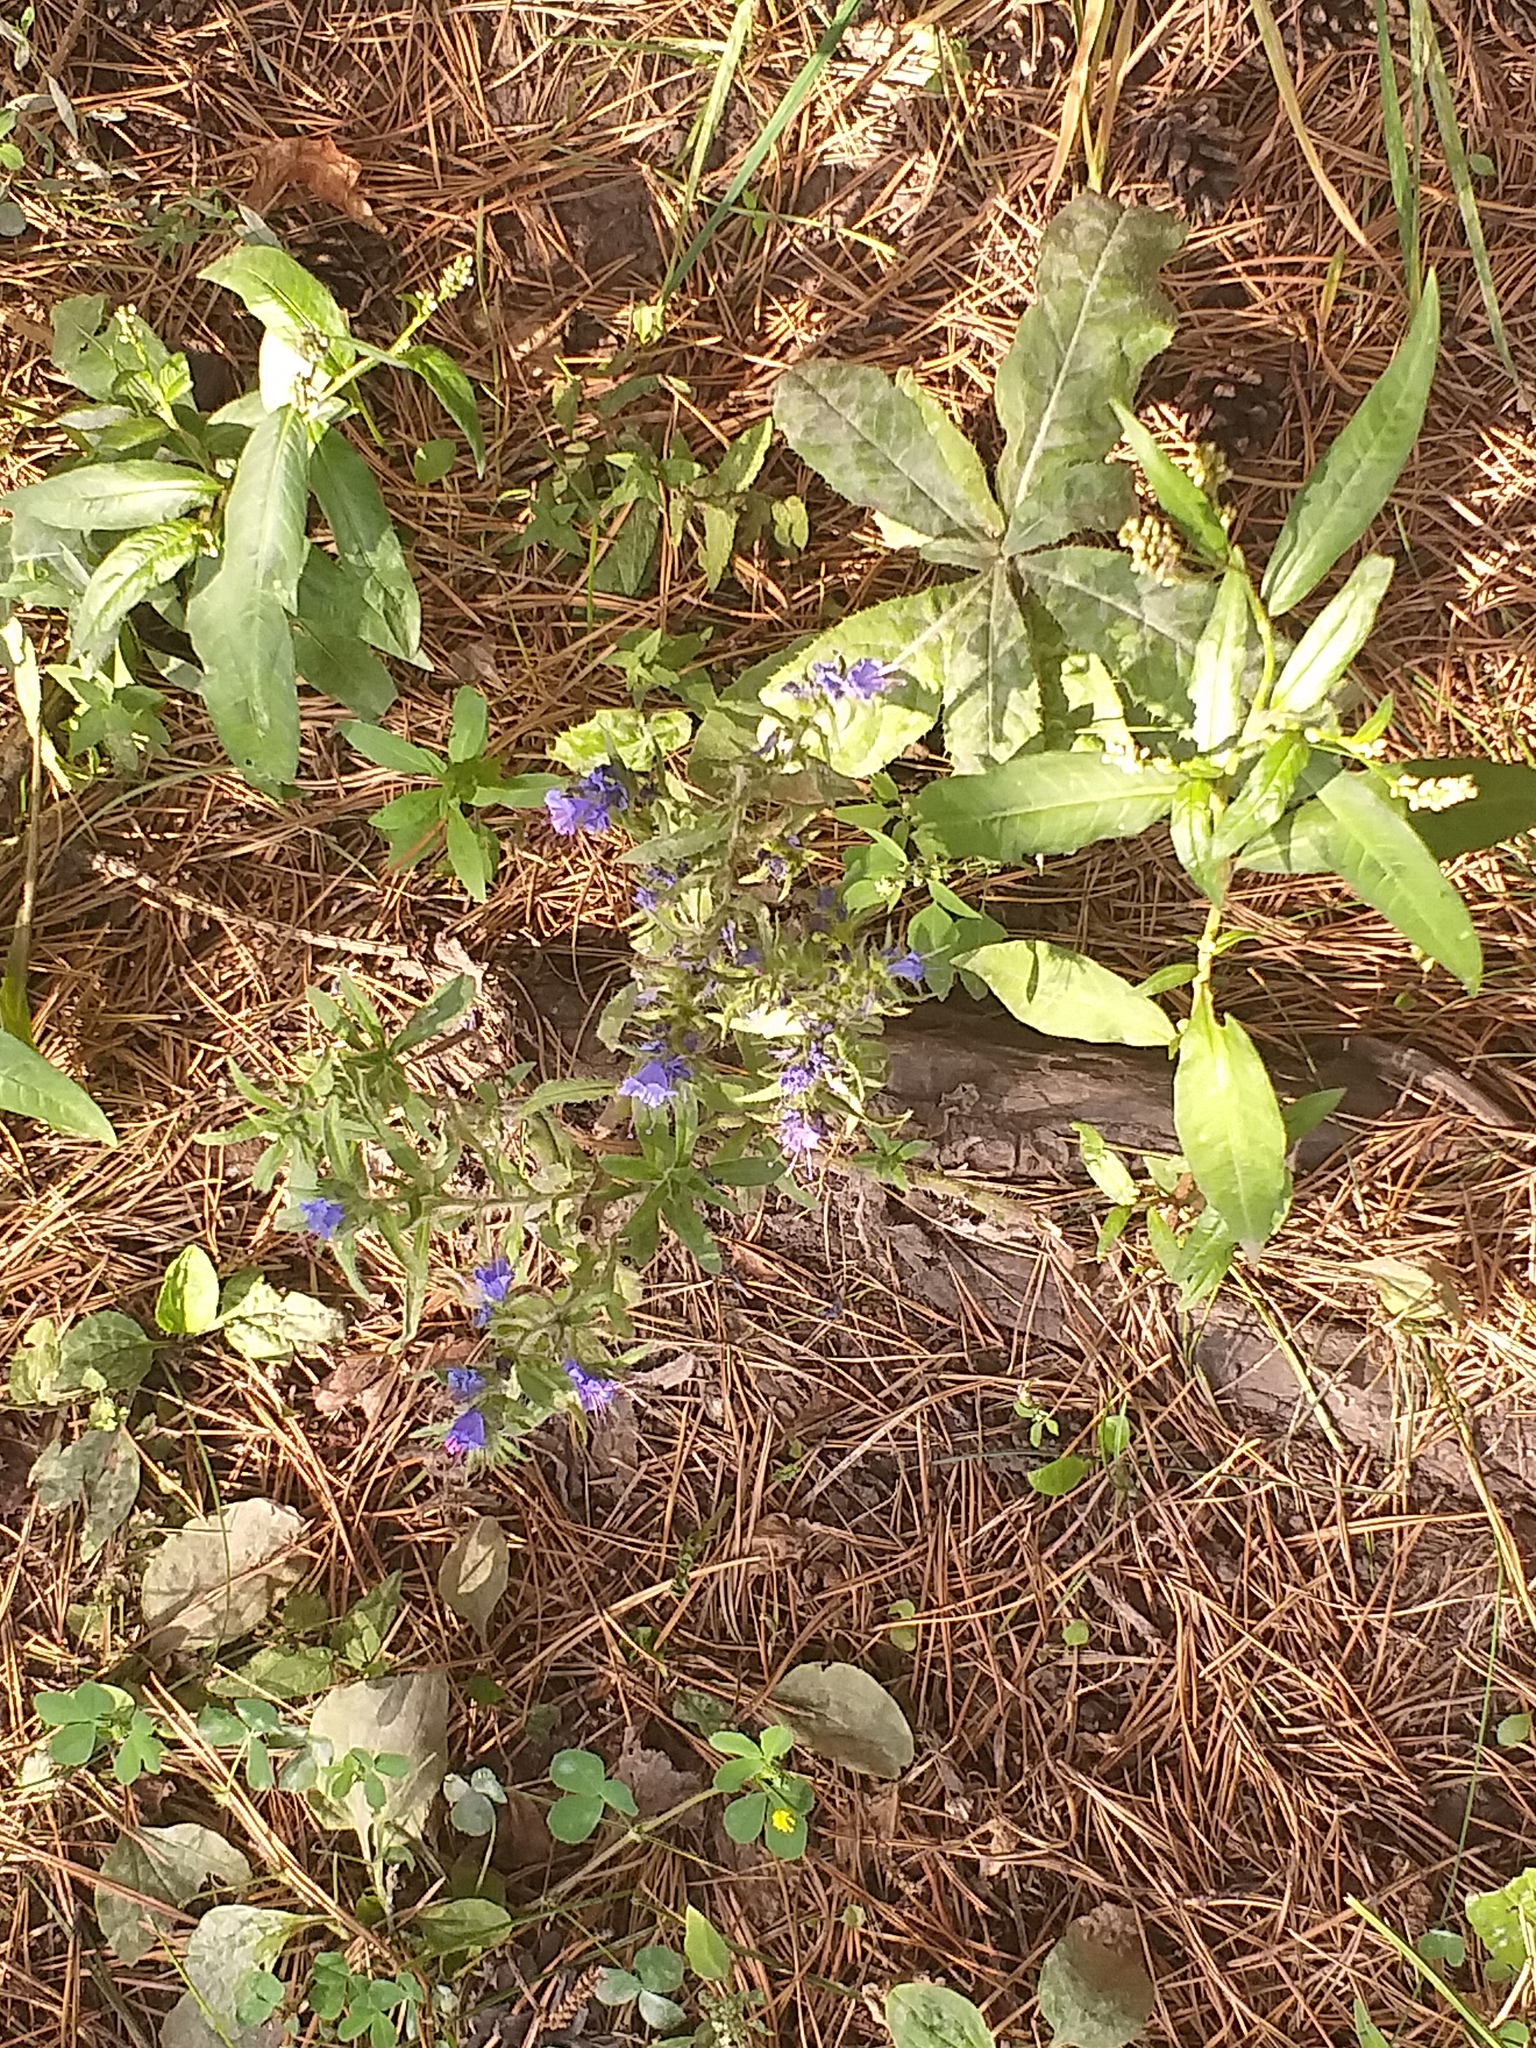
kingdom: Plantae
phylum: Tracheophyta
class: Magnoliopsida
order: Boraginales
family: Boraginaceae
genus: Echium
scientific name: Echium vulgare
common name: Common viper's bugloss
